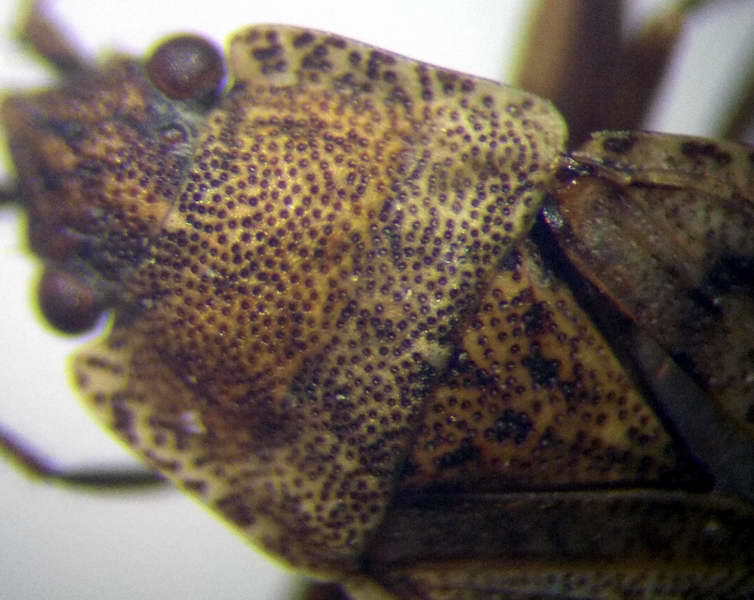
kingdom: Animalia
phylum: Arthropoda
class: Insecta
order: Hemiptera
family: Rhyparochromidae
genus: Gonianotus
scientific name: Gonianotus marginepunctatus
